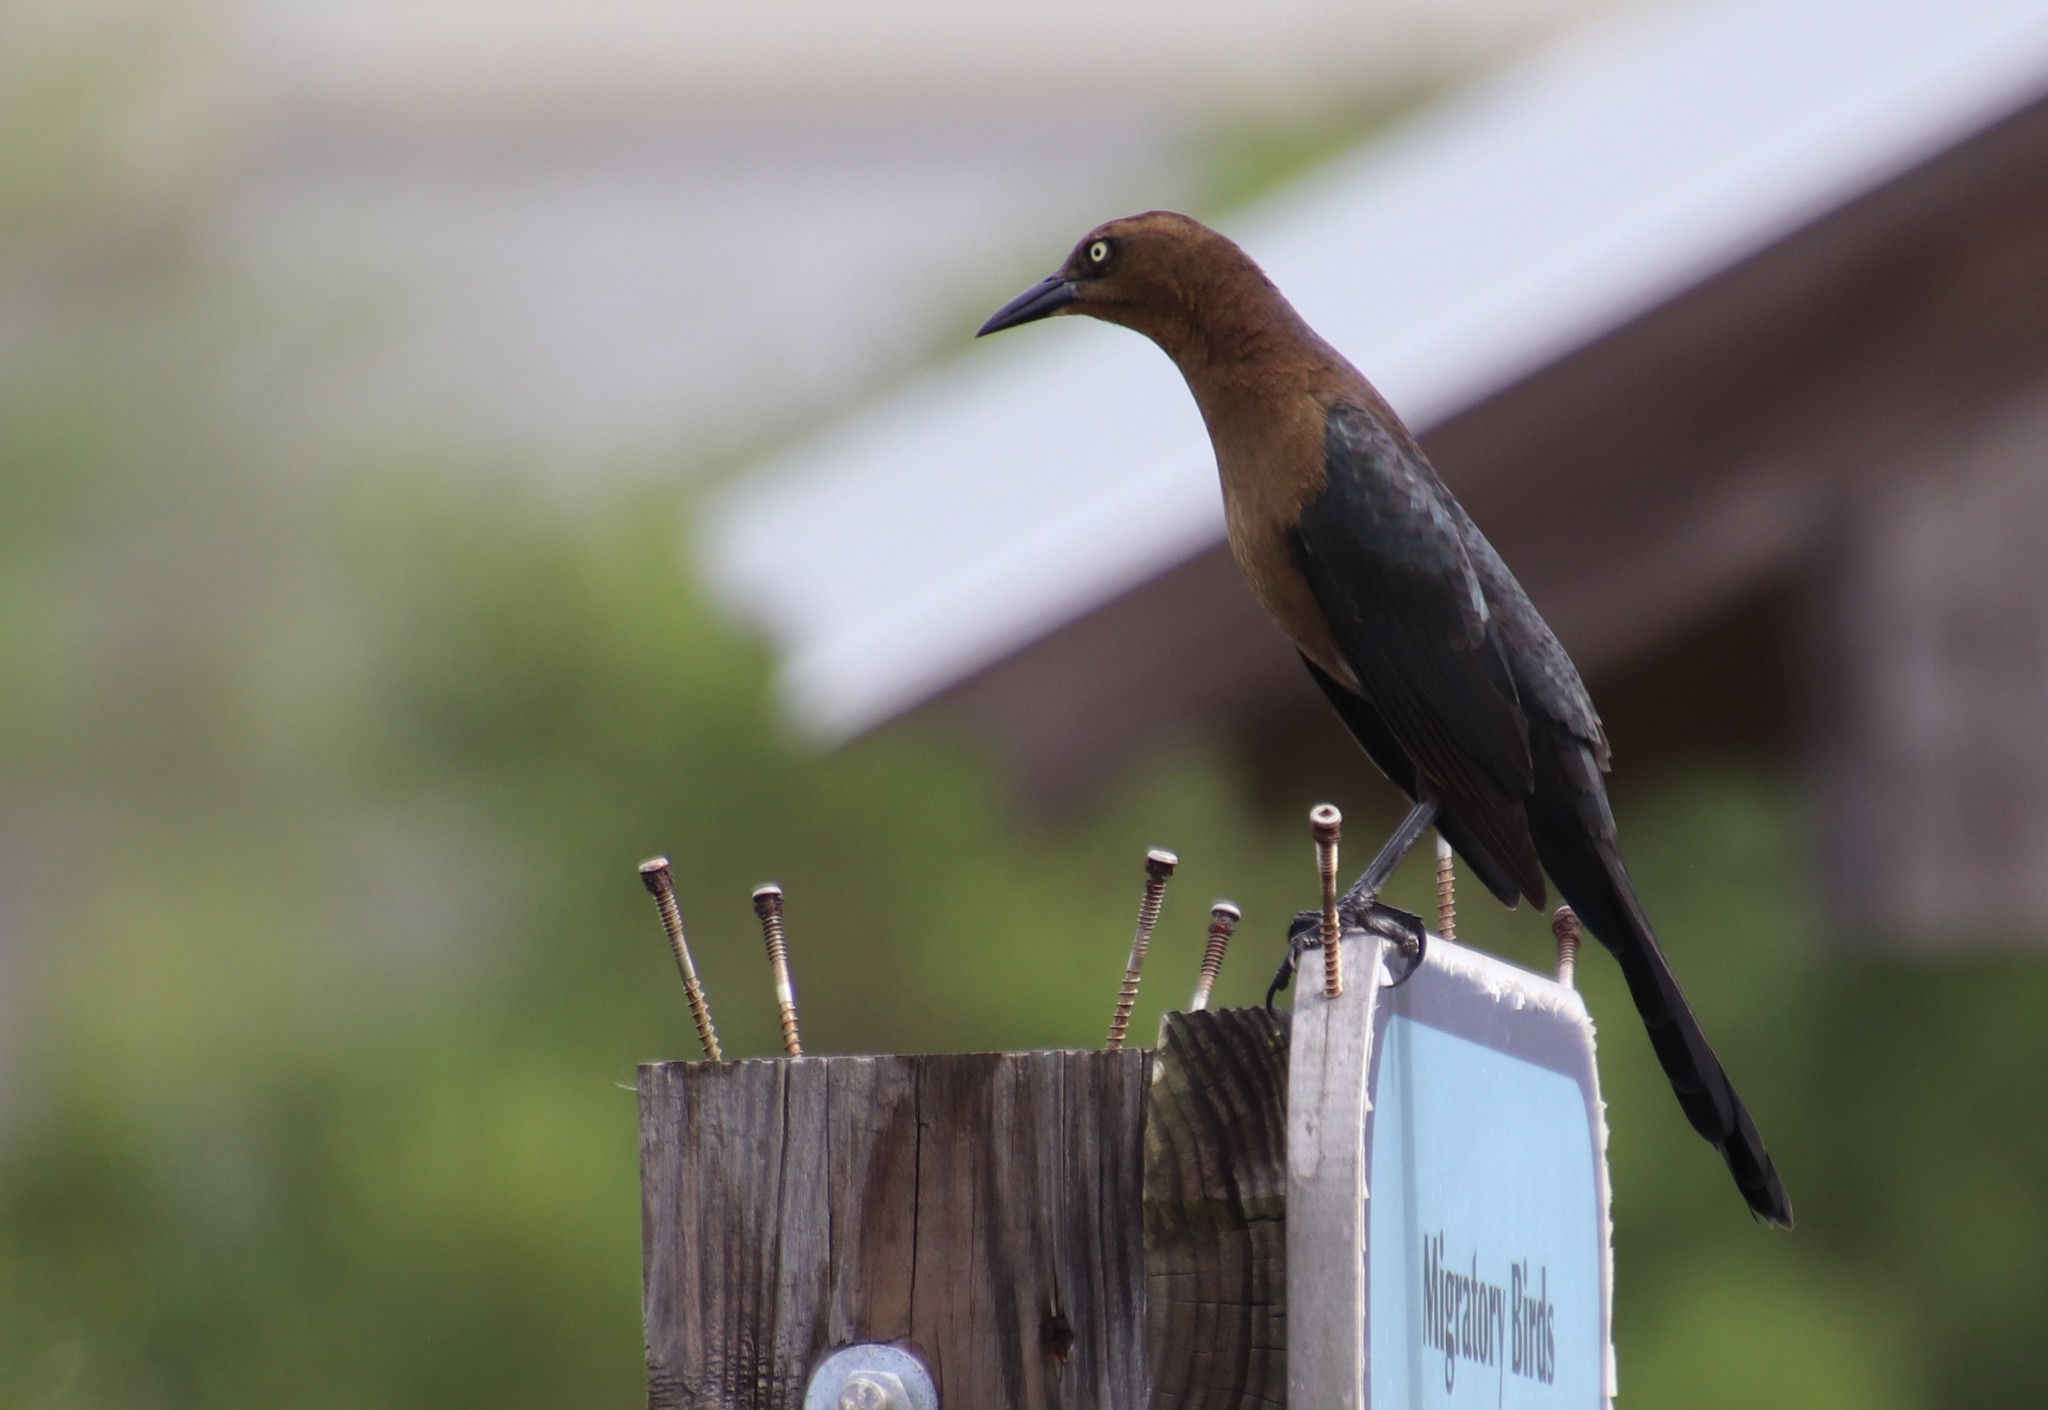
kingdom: Animalia
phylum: Chordata
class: Aves
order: Passeriformes
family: Icteridae
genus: Quiscalus
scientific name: Quiscalus mexicanus
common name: Great-tailed grackle
